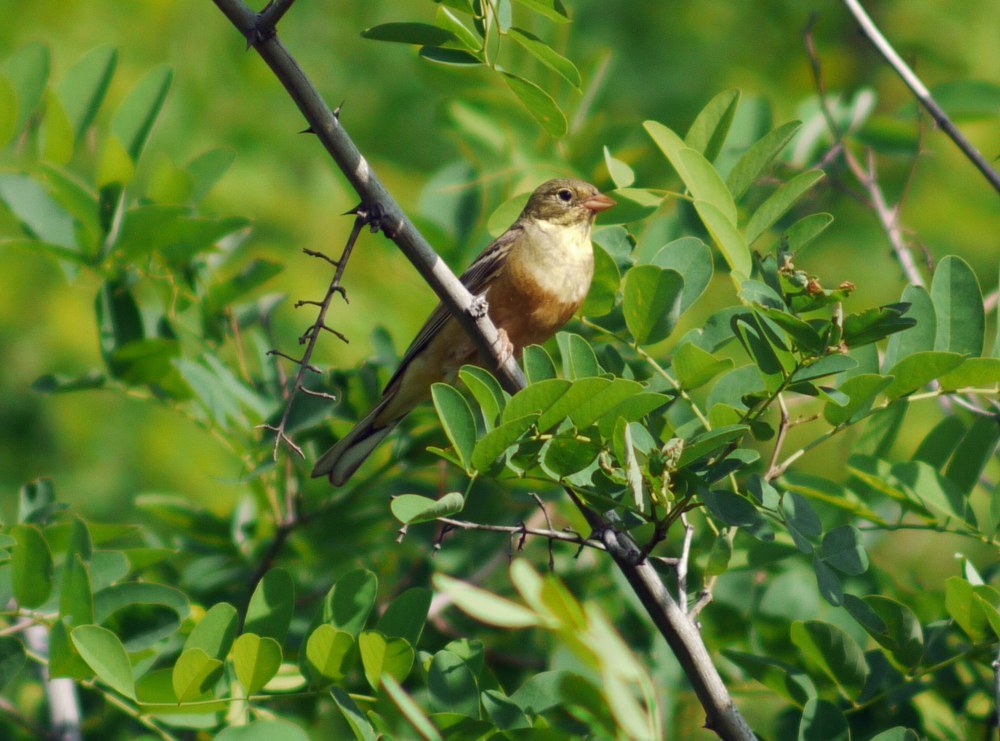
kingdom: Animalia
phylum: Chordata
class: Aves
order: Passeriformes
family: Emberizidae
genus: Emberiza
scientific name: Emberiza hortulana
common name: Ortolan bunting
